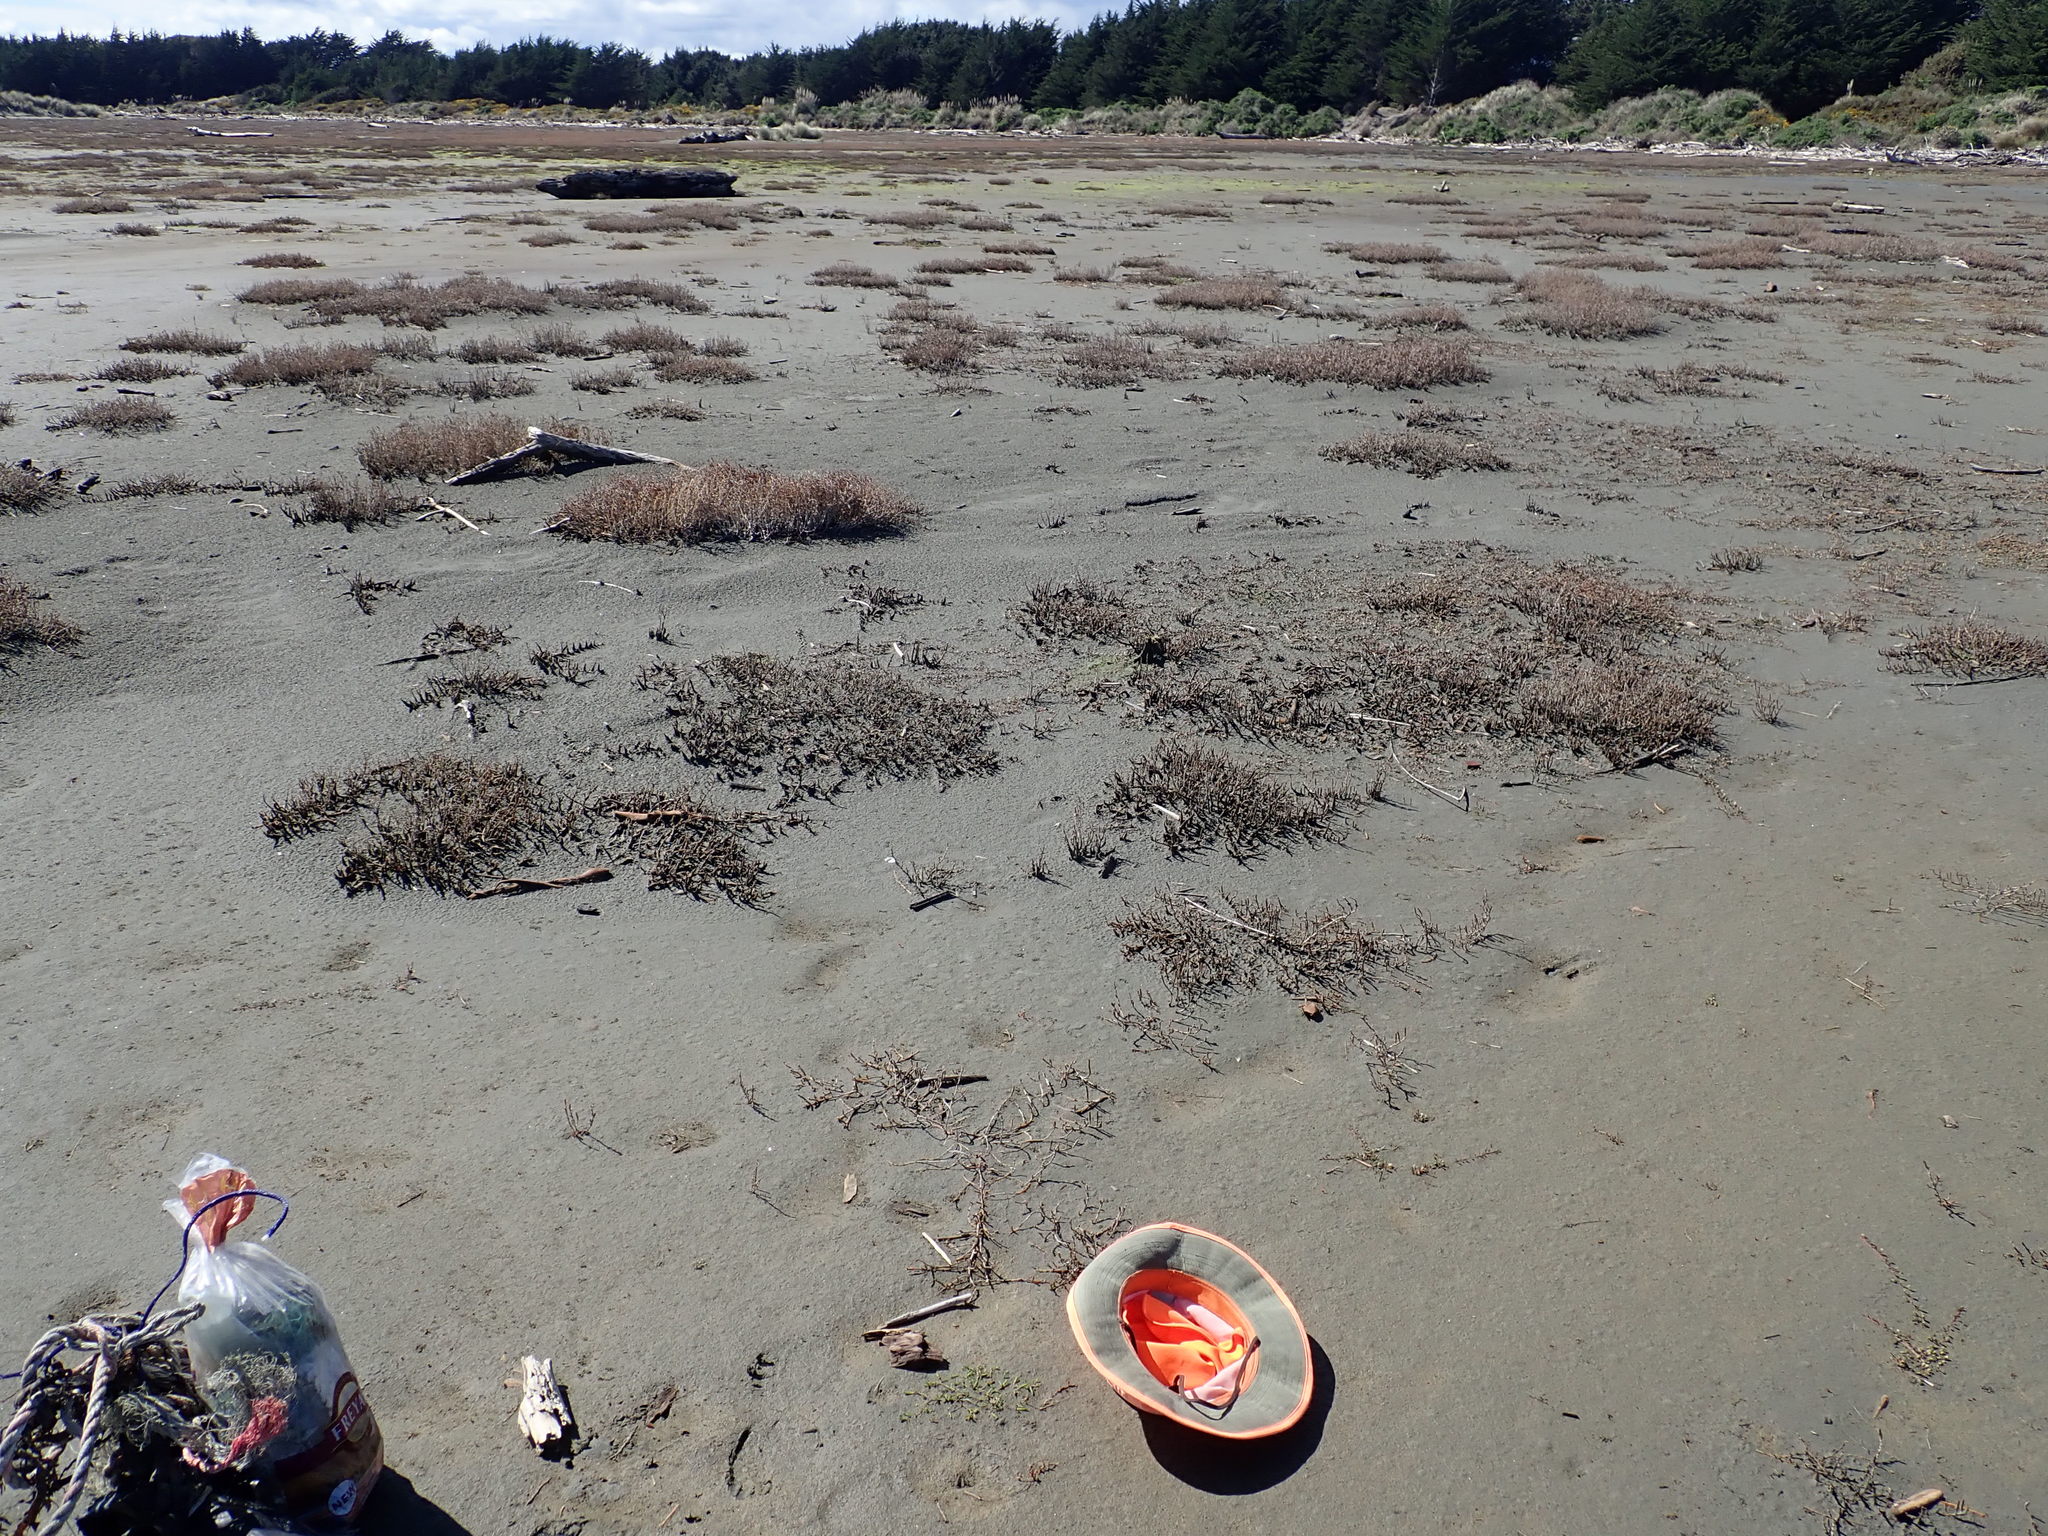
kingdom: Plantae
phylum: Tracheophyta
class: Magnoliopsida
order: Caryophyllales
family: Amaranthaceae
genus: Salicornia
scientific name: Salicornia quinqueflora
